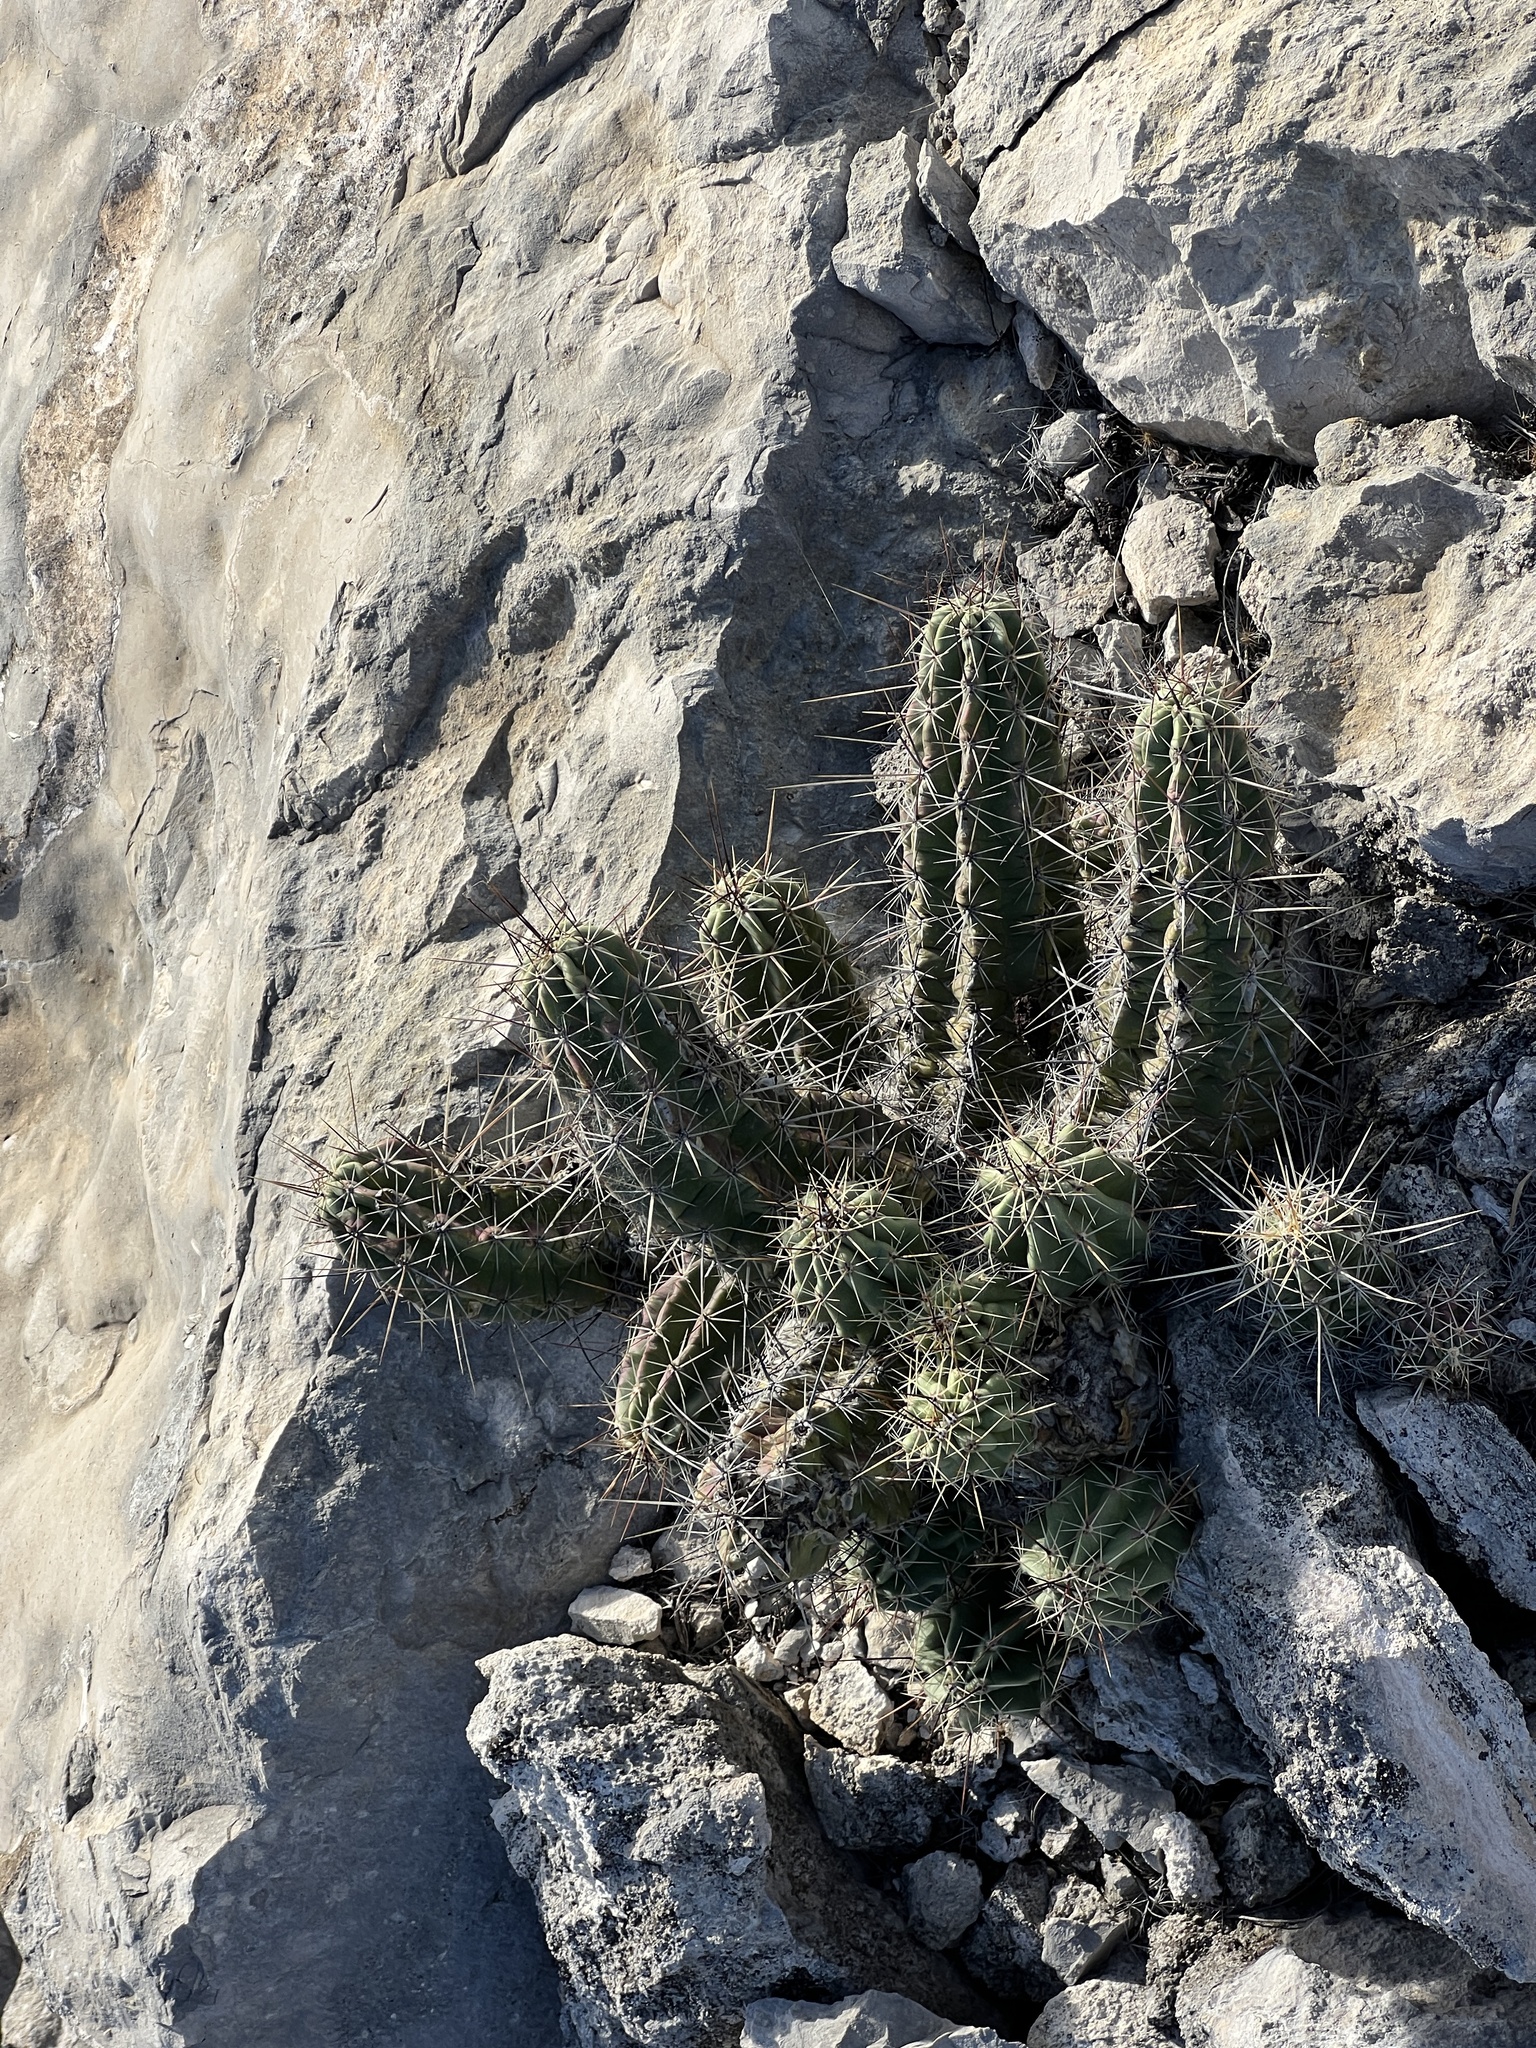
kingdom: Plantae
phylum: Tracheophyta
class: Magnoliopsida
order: Caryophyllales
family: Cactaceae
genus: Echinocereus
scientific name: Echinocereus enneacanthus
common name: Pitaya
